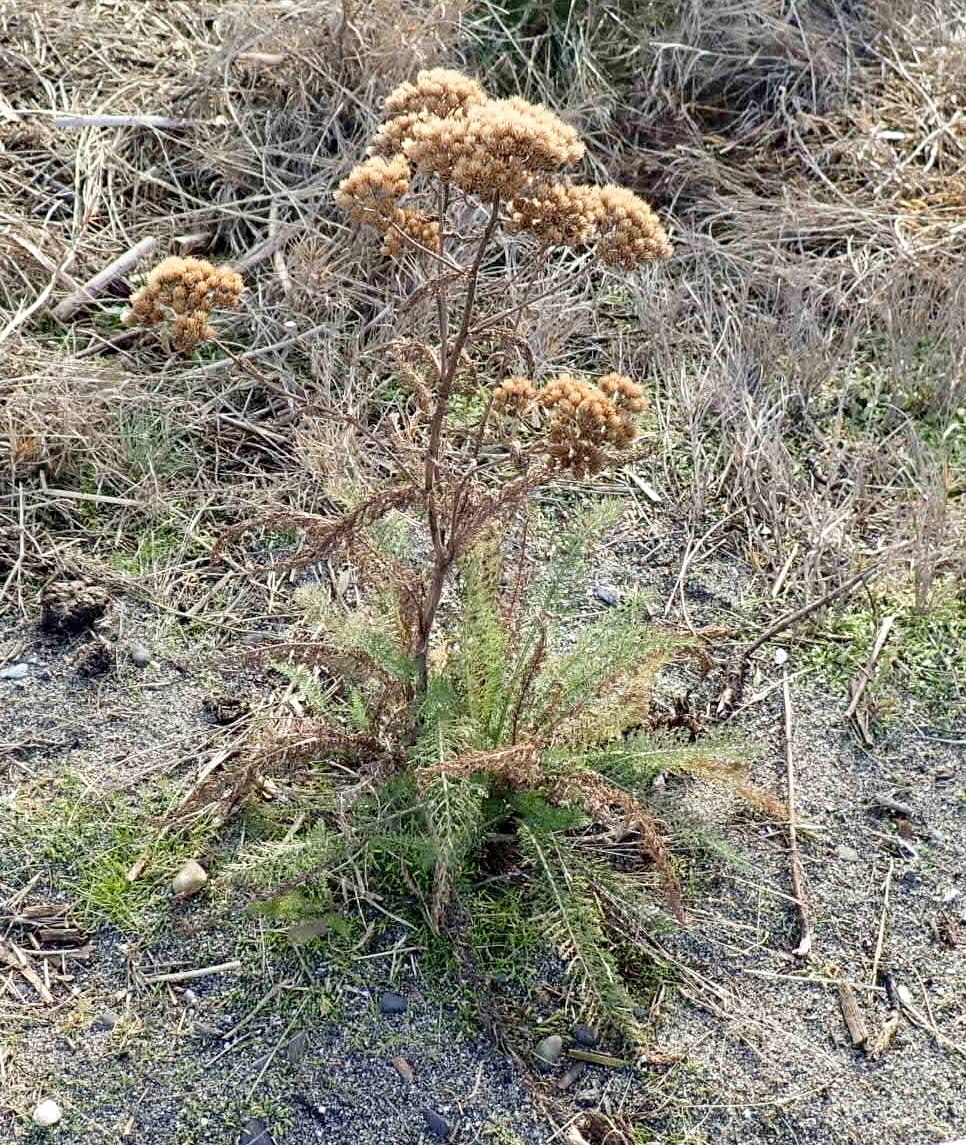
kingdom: Plantae
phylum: Tracheophyta
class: Magnoliopsida
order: Asterales
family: Asteraceae
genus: Achillea
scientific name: Achillea millefolium
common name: Yarrow
